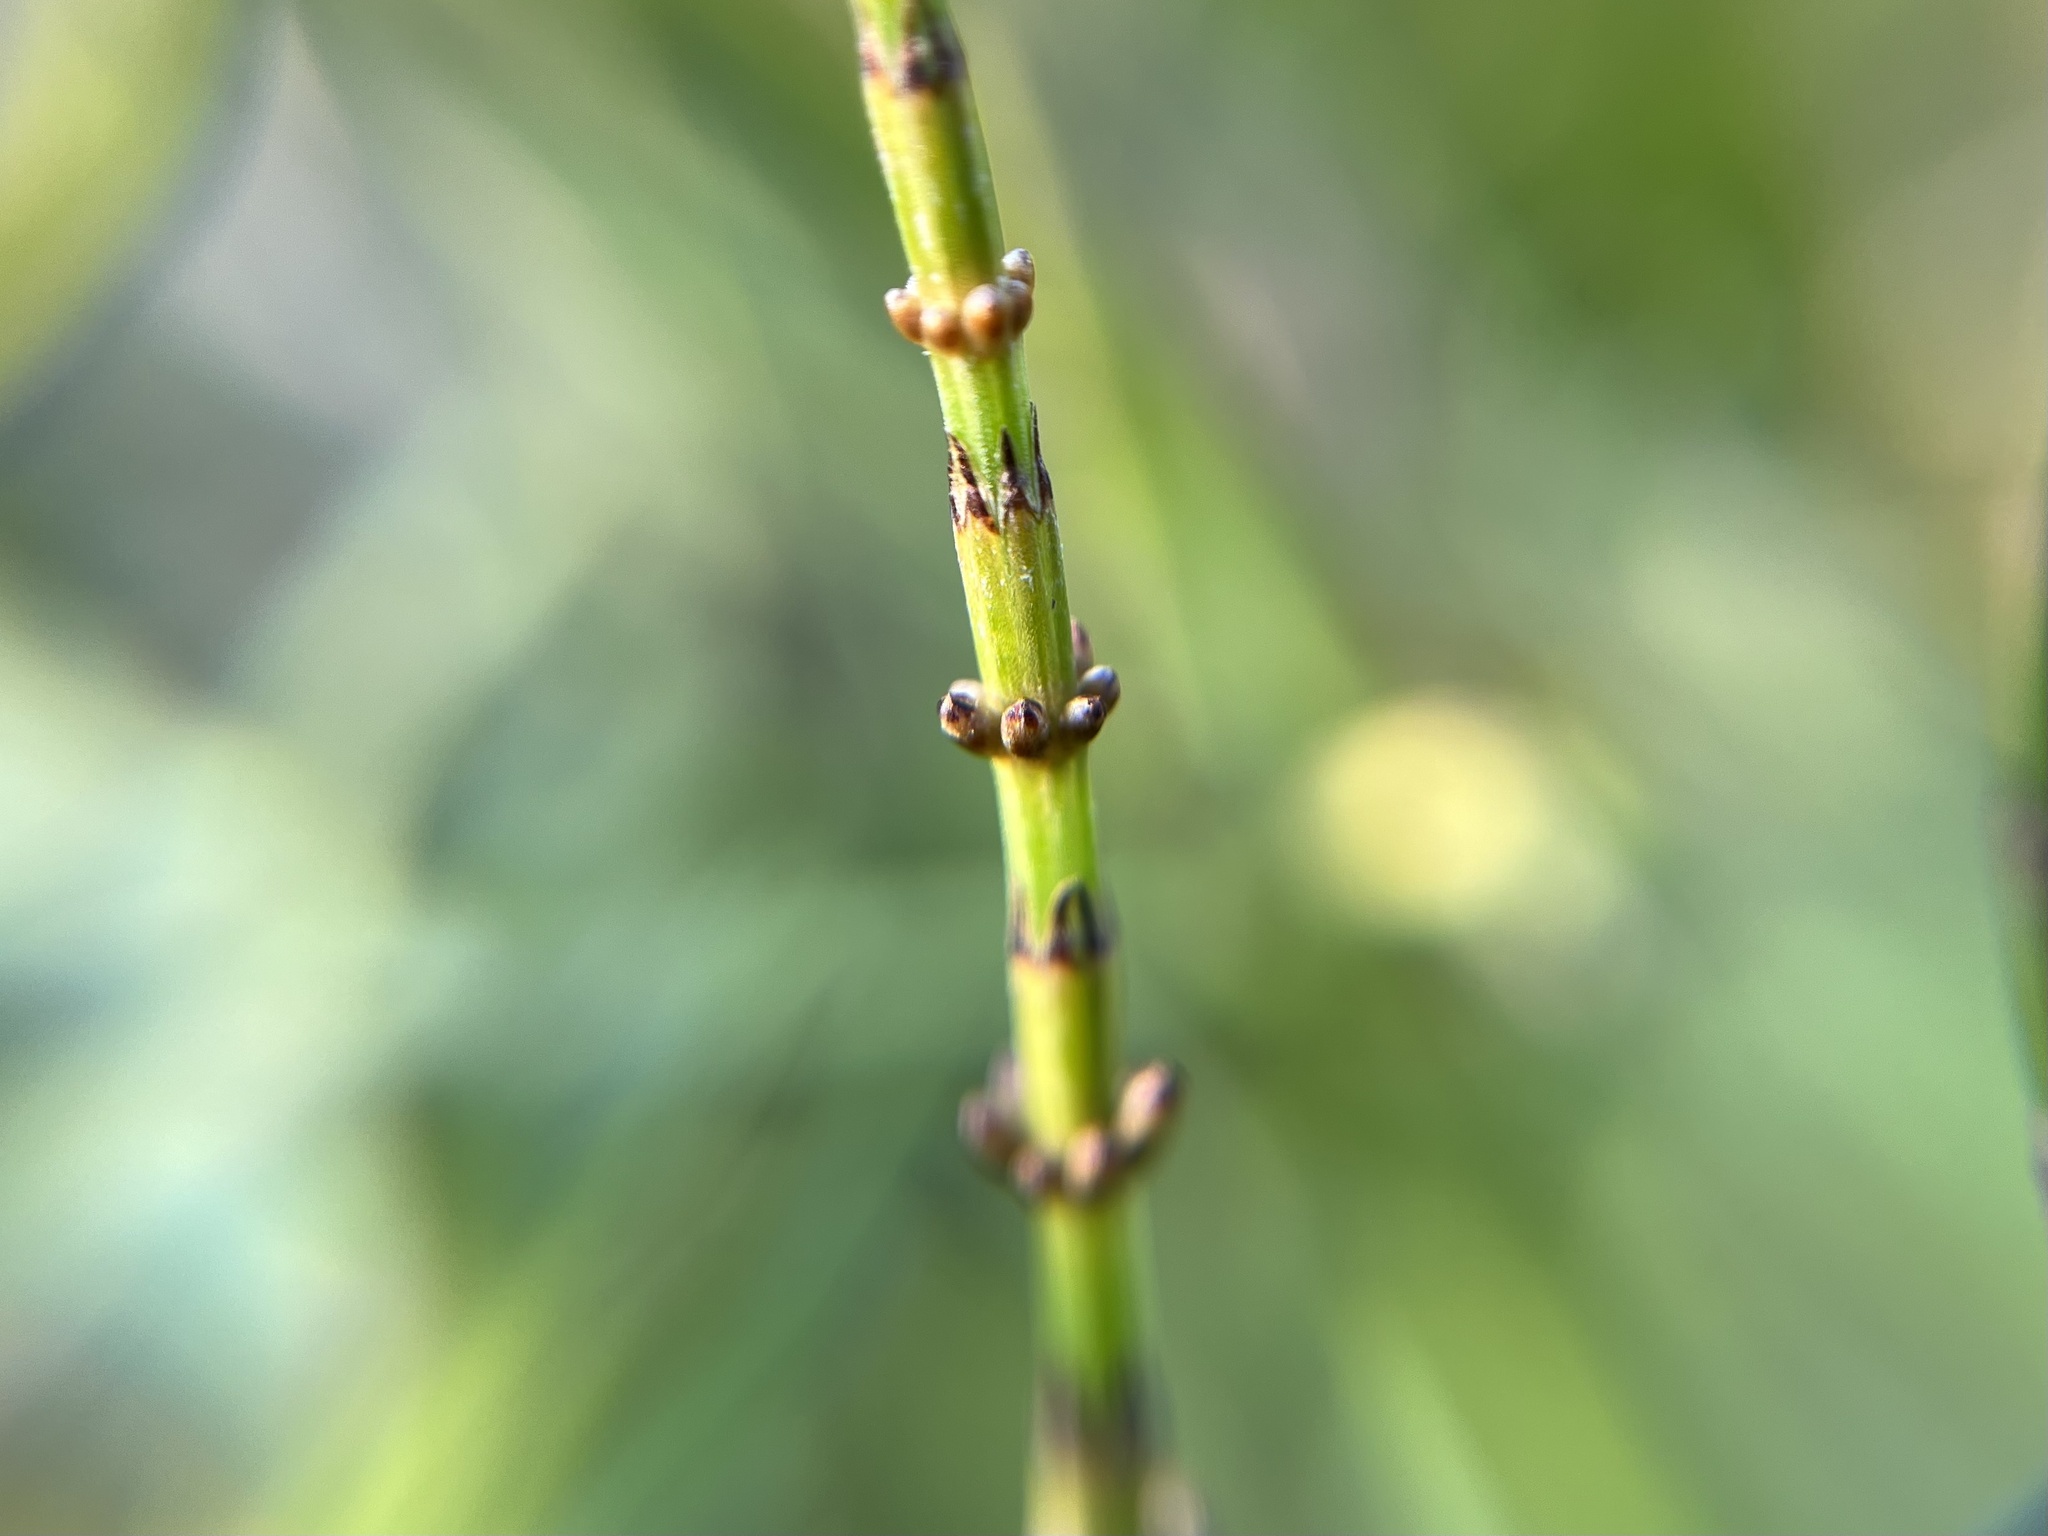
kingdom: Plantae
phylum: Tracheophyta
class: Polypodiopsida
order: Equisetales
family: Equisetaceae
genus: Equisetum
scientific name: Equisetum palustre
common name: Marsh horsetail
